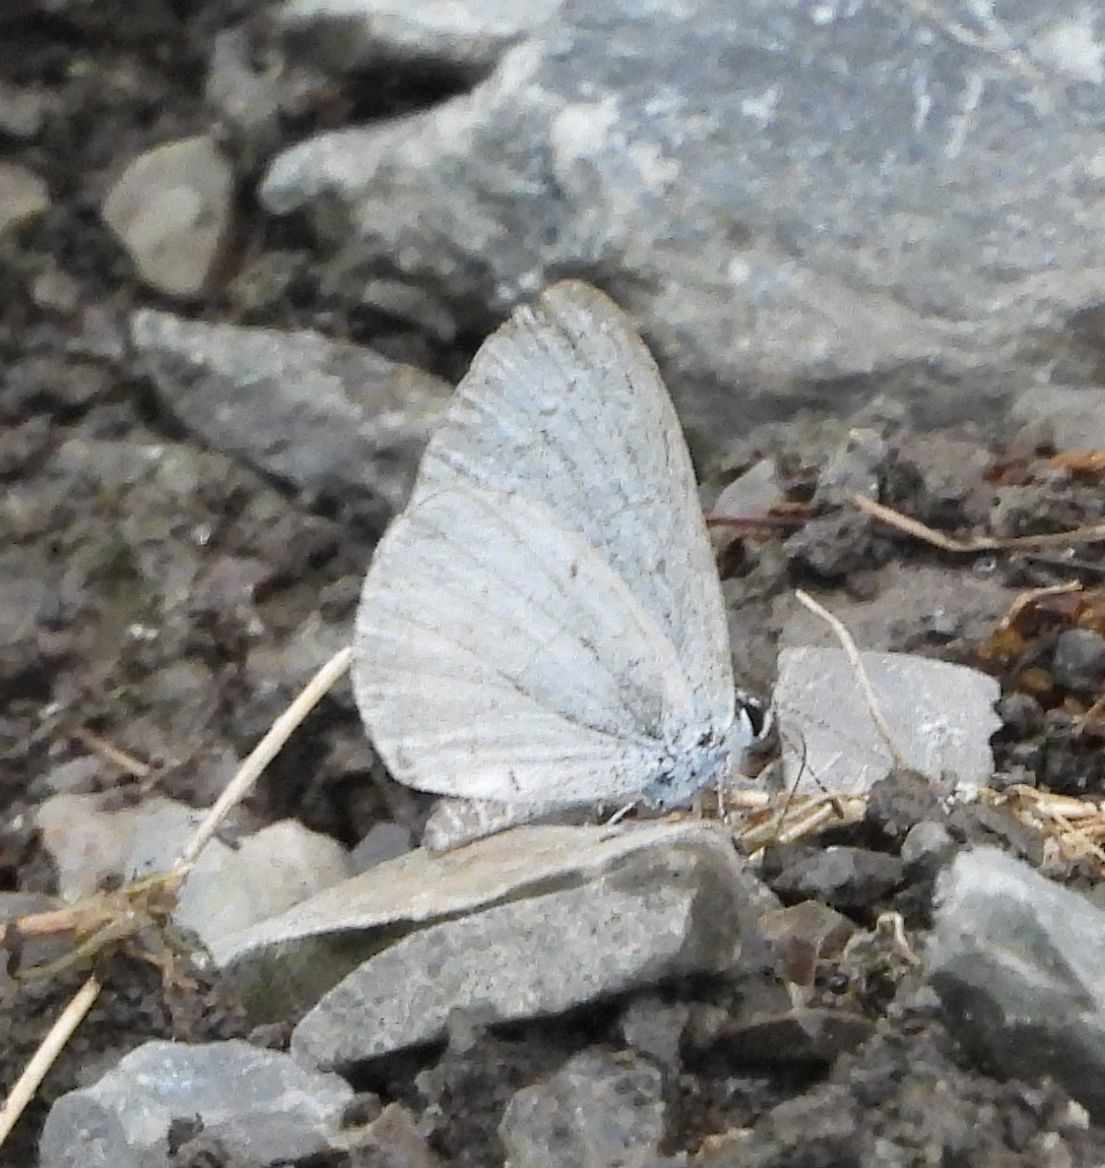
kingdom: Animalia
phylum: Arthropoda
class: Insecta
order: Lepidoptera
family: Lycaenidae
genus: Celastrina
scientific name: Celastrina lucia
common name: Lucia azure
